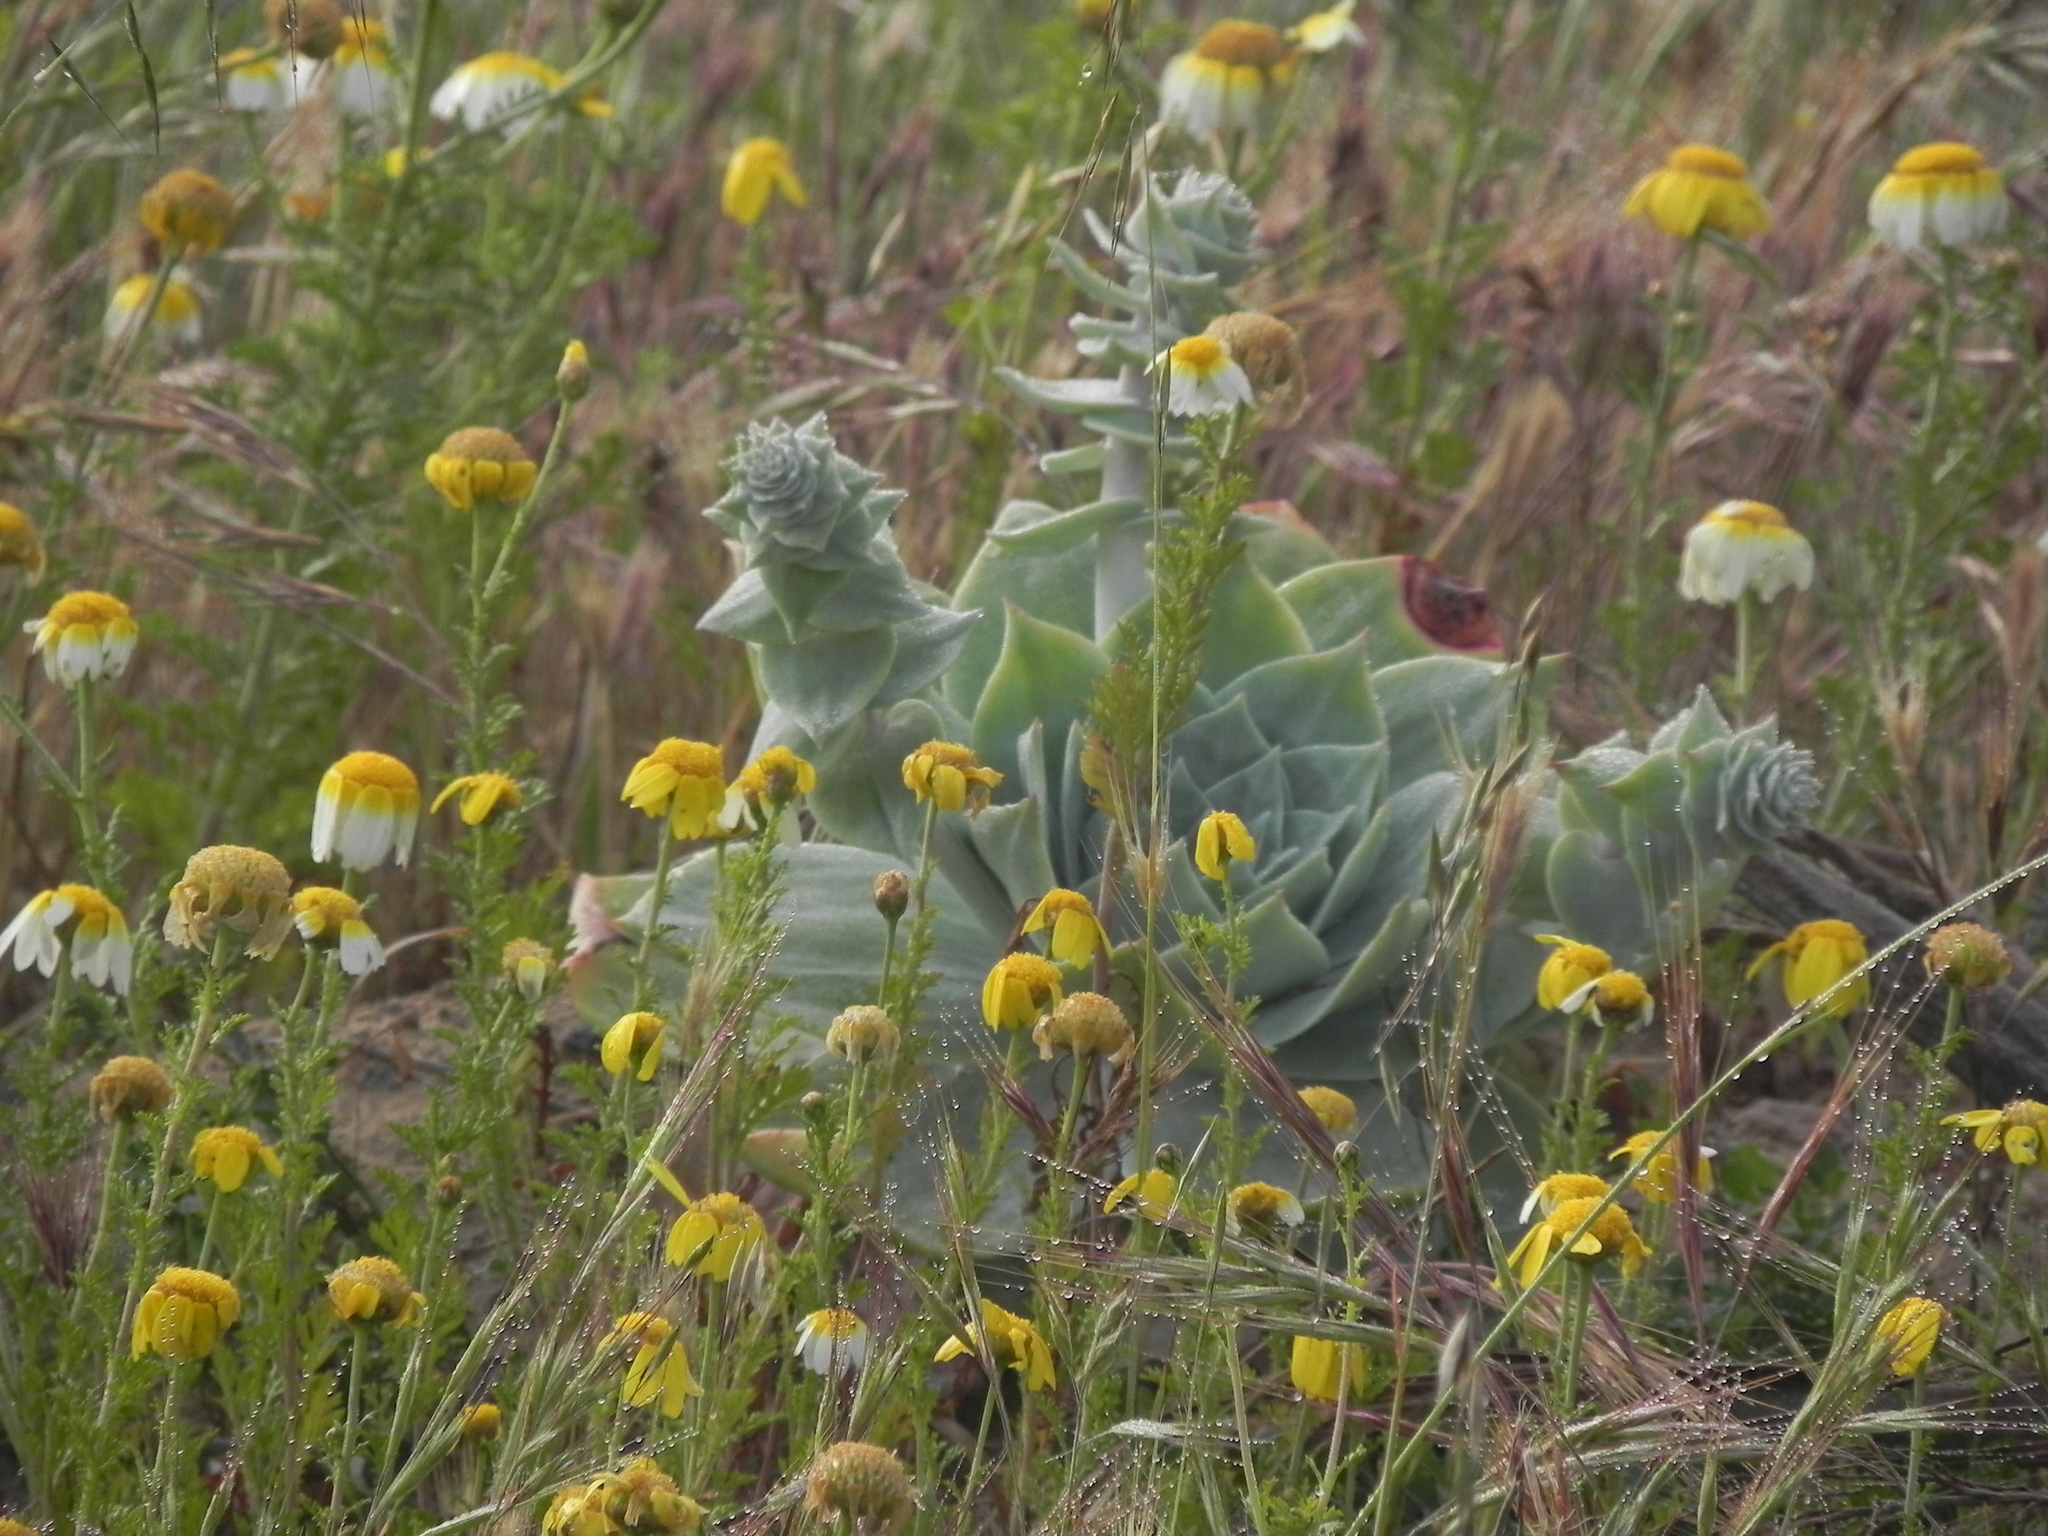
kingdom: Plantae
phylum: Tracheophyta
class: Magnoliopsida
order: Saxifragales
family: Crassulaceae
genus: Dudleya
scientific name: Dudleya pulverulenta
